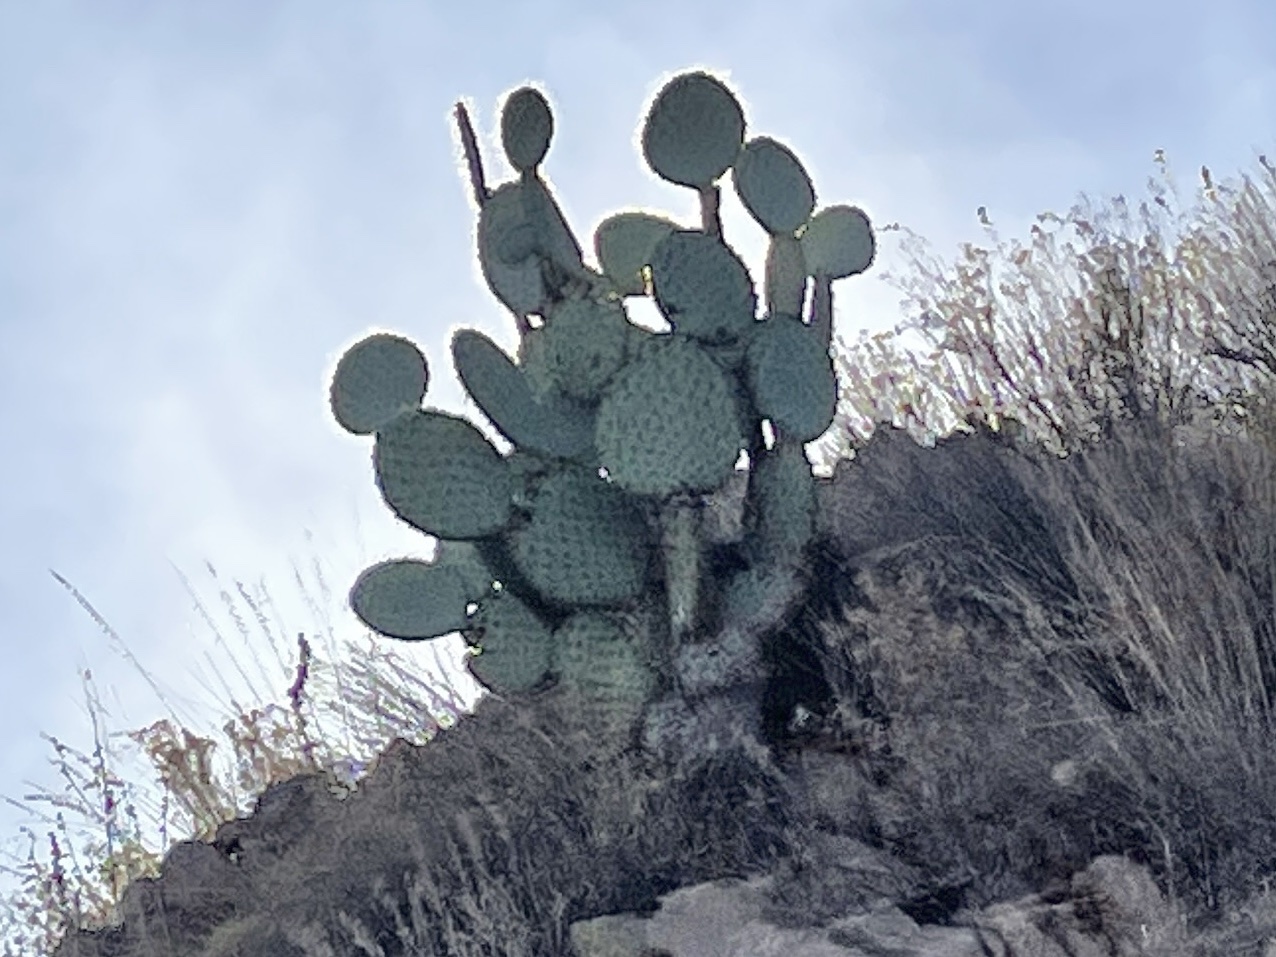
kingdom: Plantae
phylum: Tracheophyta
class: Magnoliopsida
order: Caryophyllales
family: Cactaceae
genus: Opuntia
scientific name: Opuntia chlorotica
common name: Dollar-joint prickly-pear
